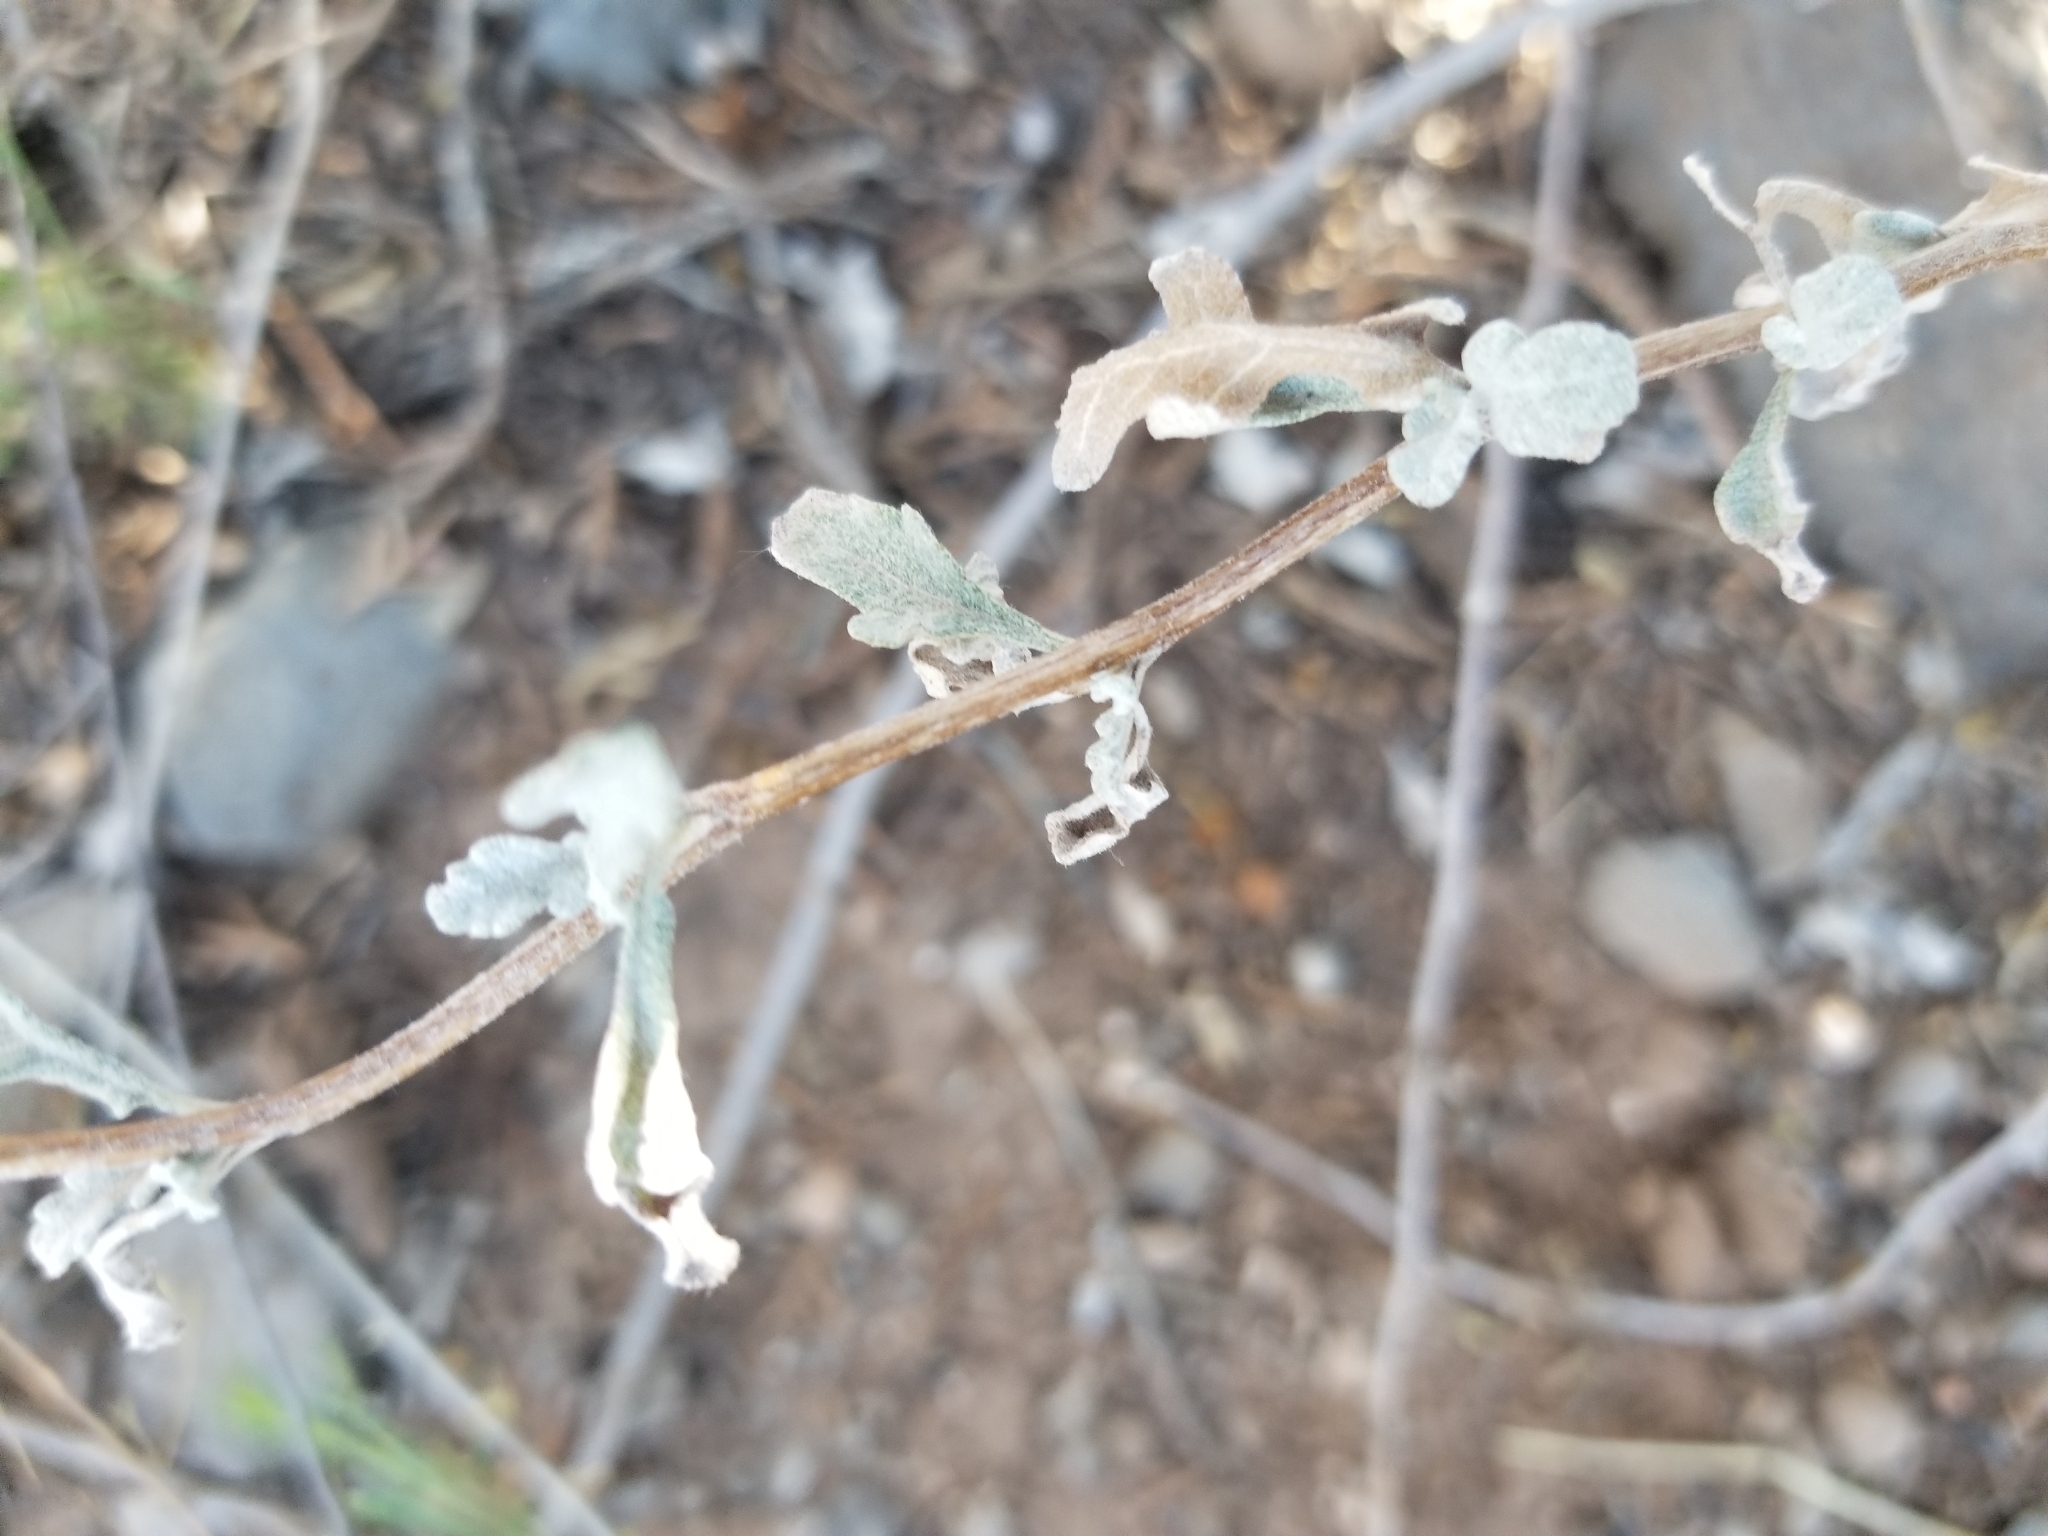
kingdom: Plantae
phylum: Tracheophyta
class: Magnoliopsida
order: Asterales
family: Asteraceae
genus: Parthenium
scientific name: Parthenium incanum
